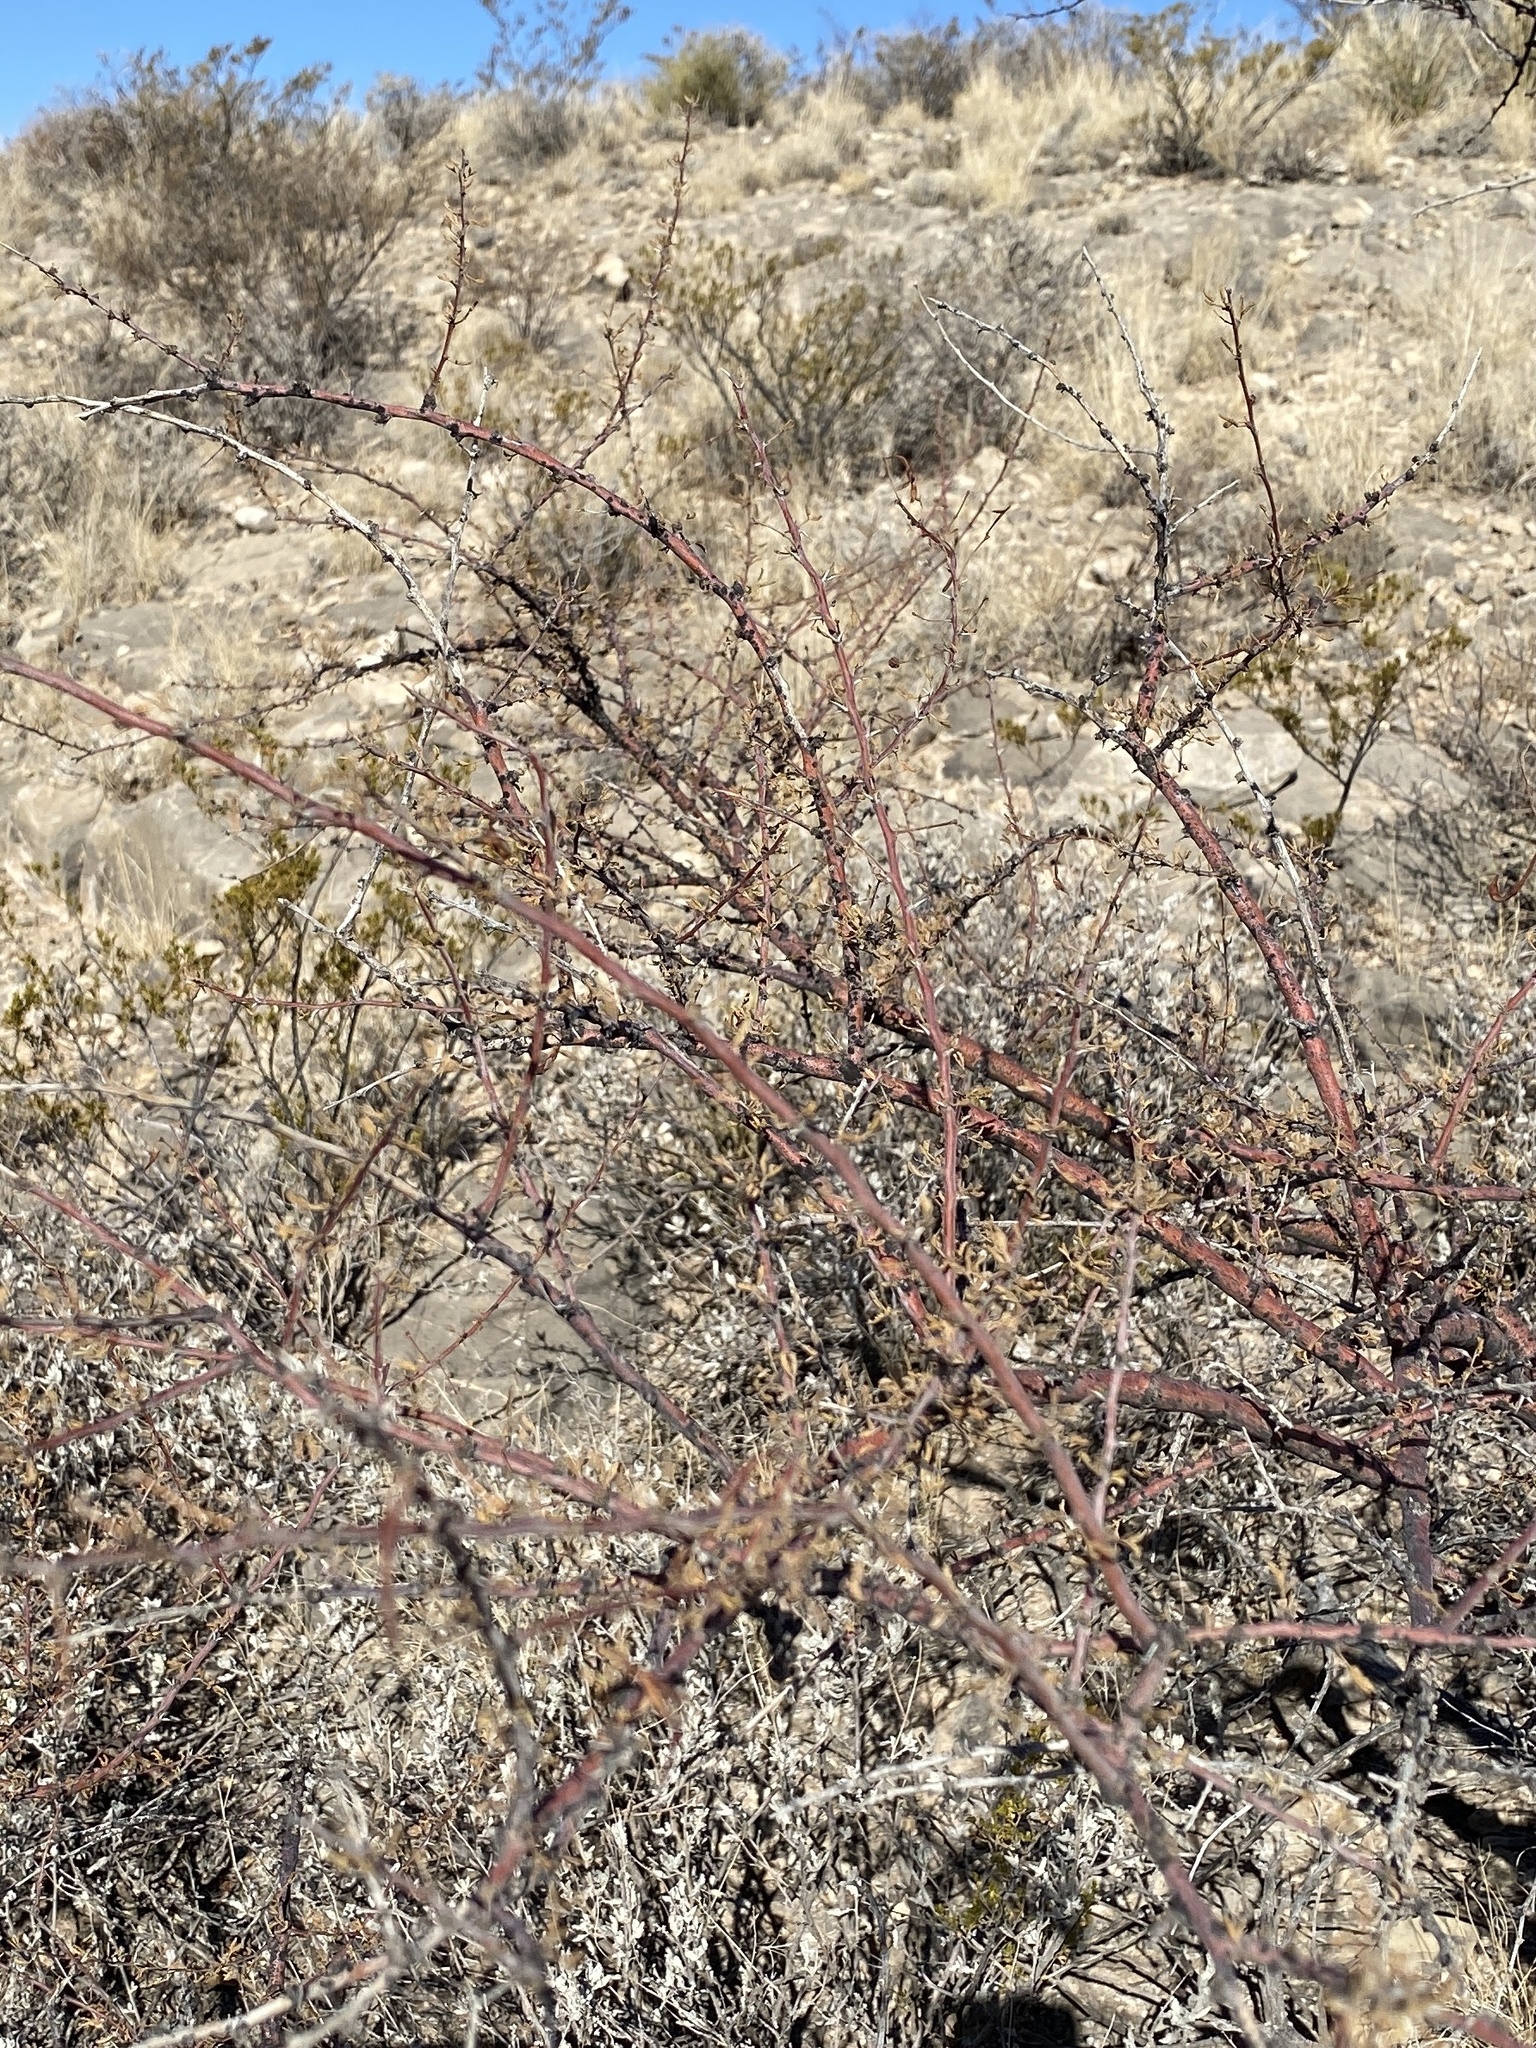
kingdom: Plantae
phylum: Tracheophyta
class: Magnoliopsida
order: Fabales
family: Fabaceae
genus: Vachellia
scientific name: Vachellia constricta
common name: Mescat acacia
